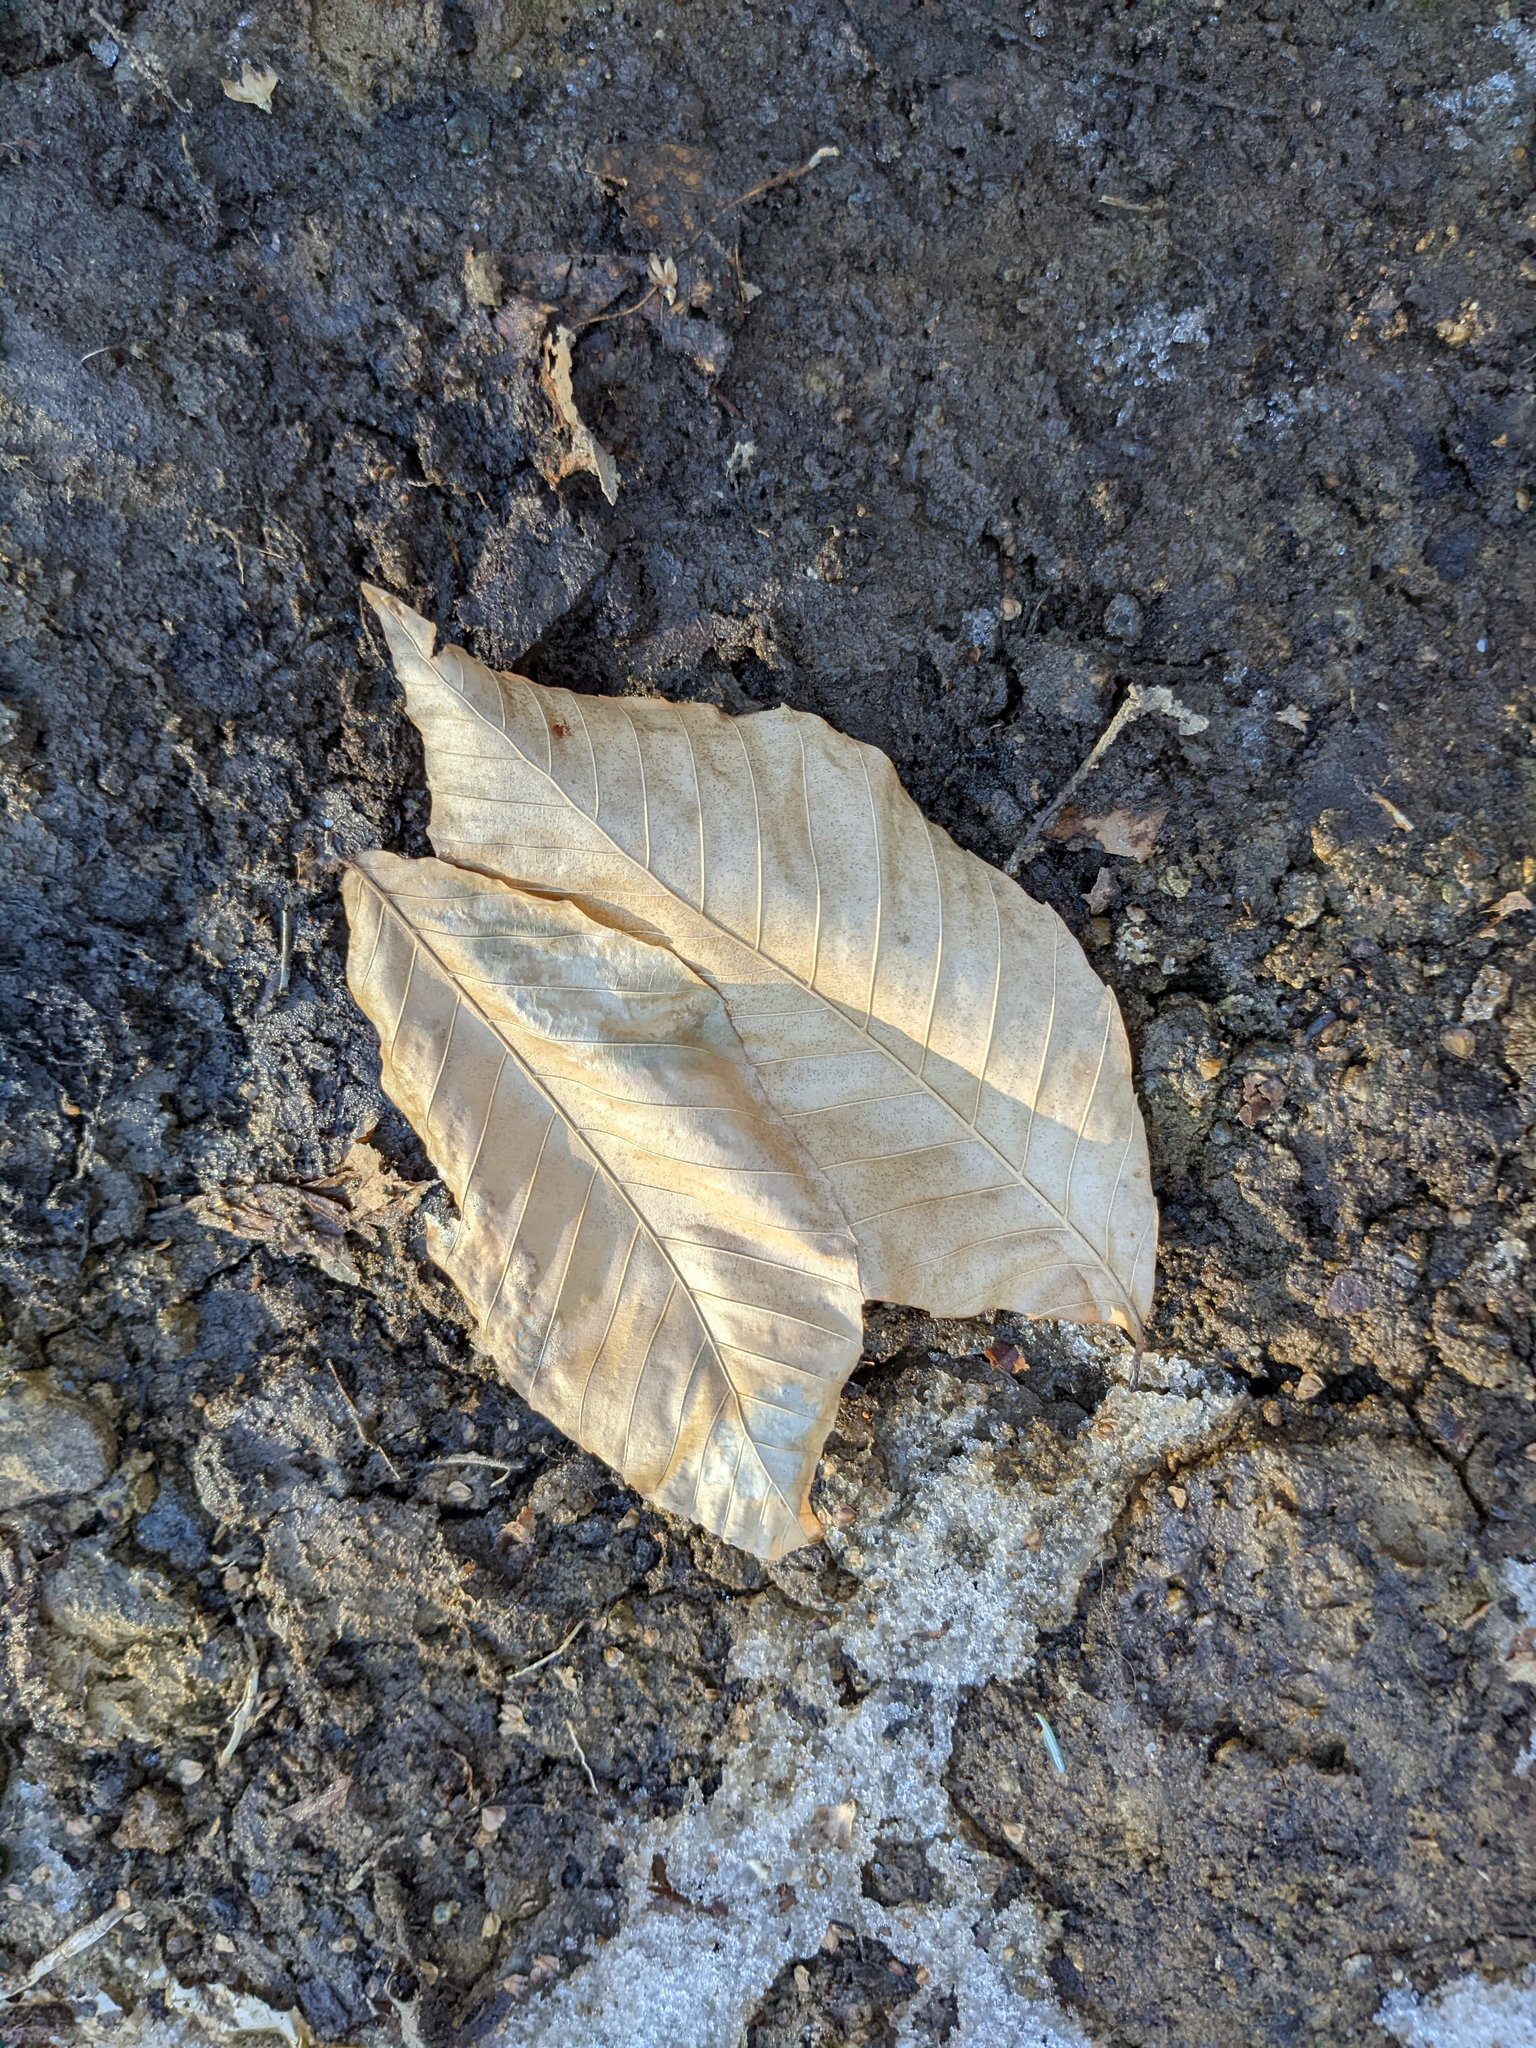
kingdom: Plantae
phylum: Tracheophyta
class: Magnoliopsida
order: Fagales
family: Fagaceae
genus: Fagus
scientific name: Fagus grandifolia
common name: American beech
